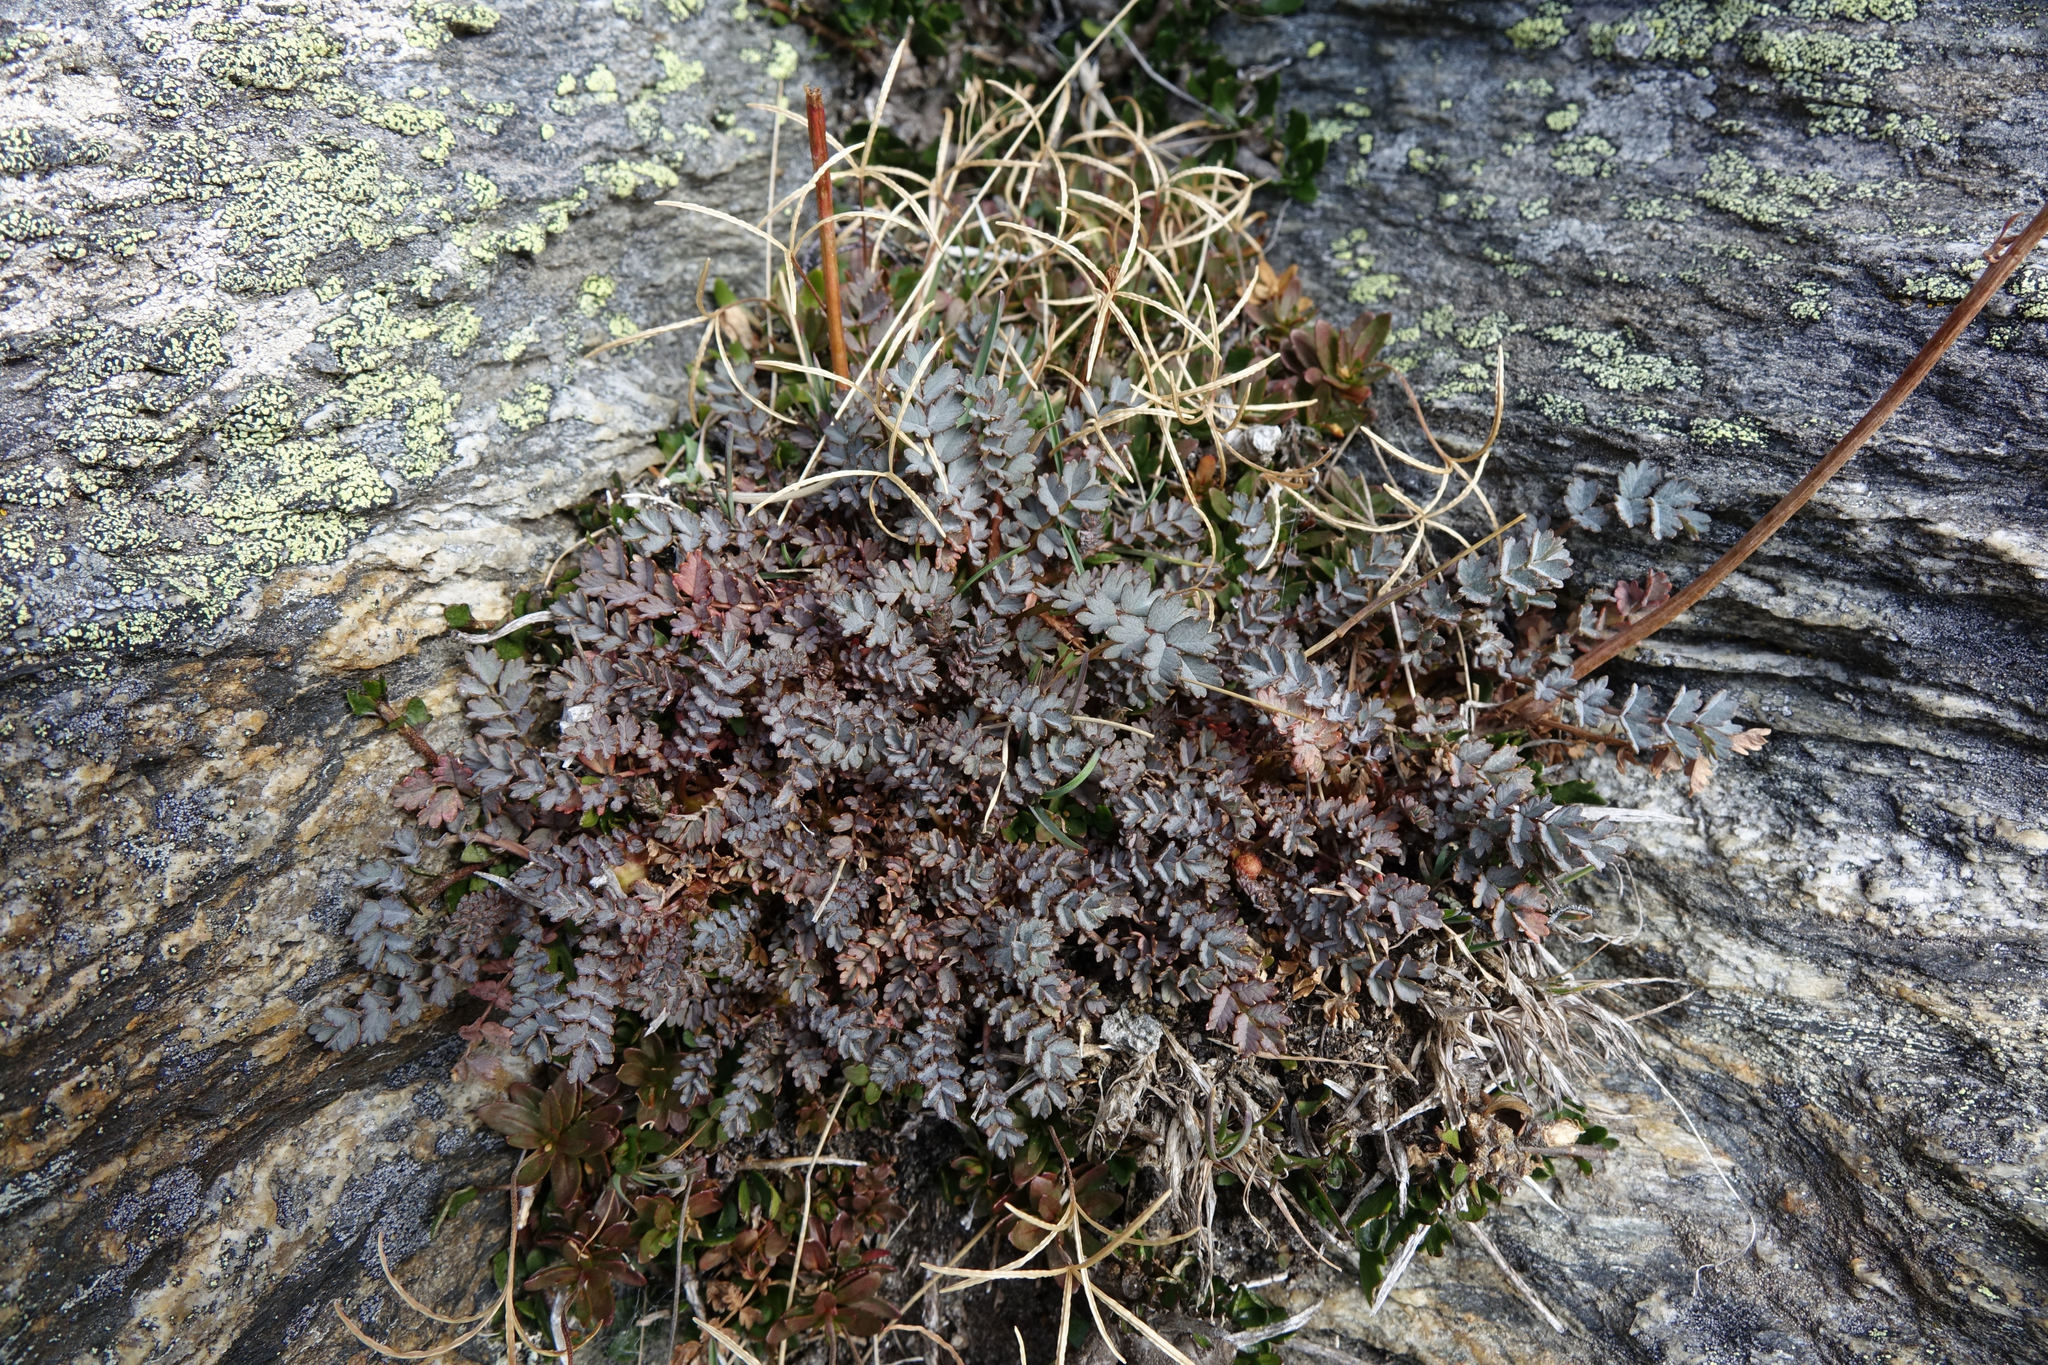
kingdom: Plantae
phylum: Tracheophyta
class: Magnoliopsida
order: Rosales
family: Rosaceae
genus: Acaena
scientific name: Acaena saccaticupula
